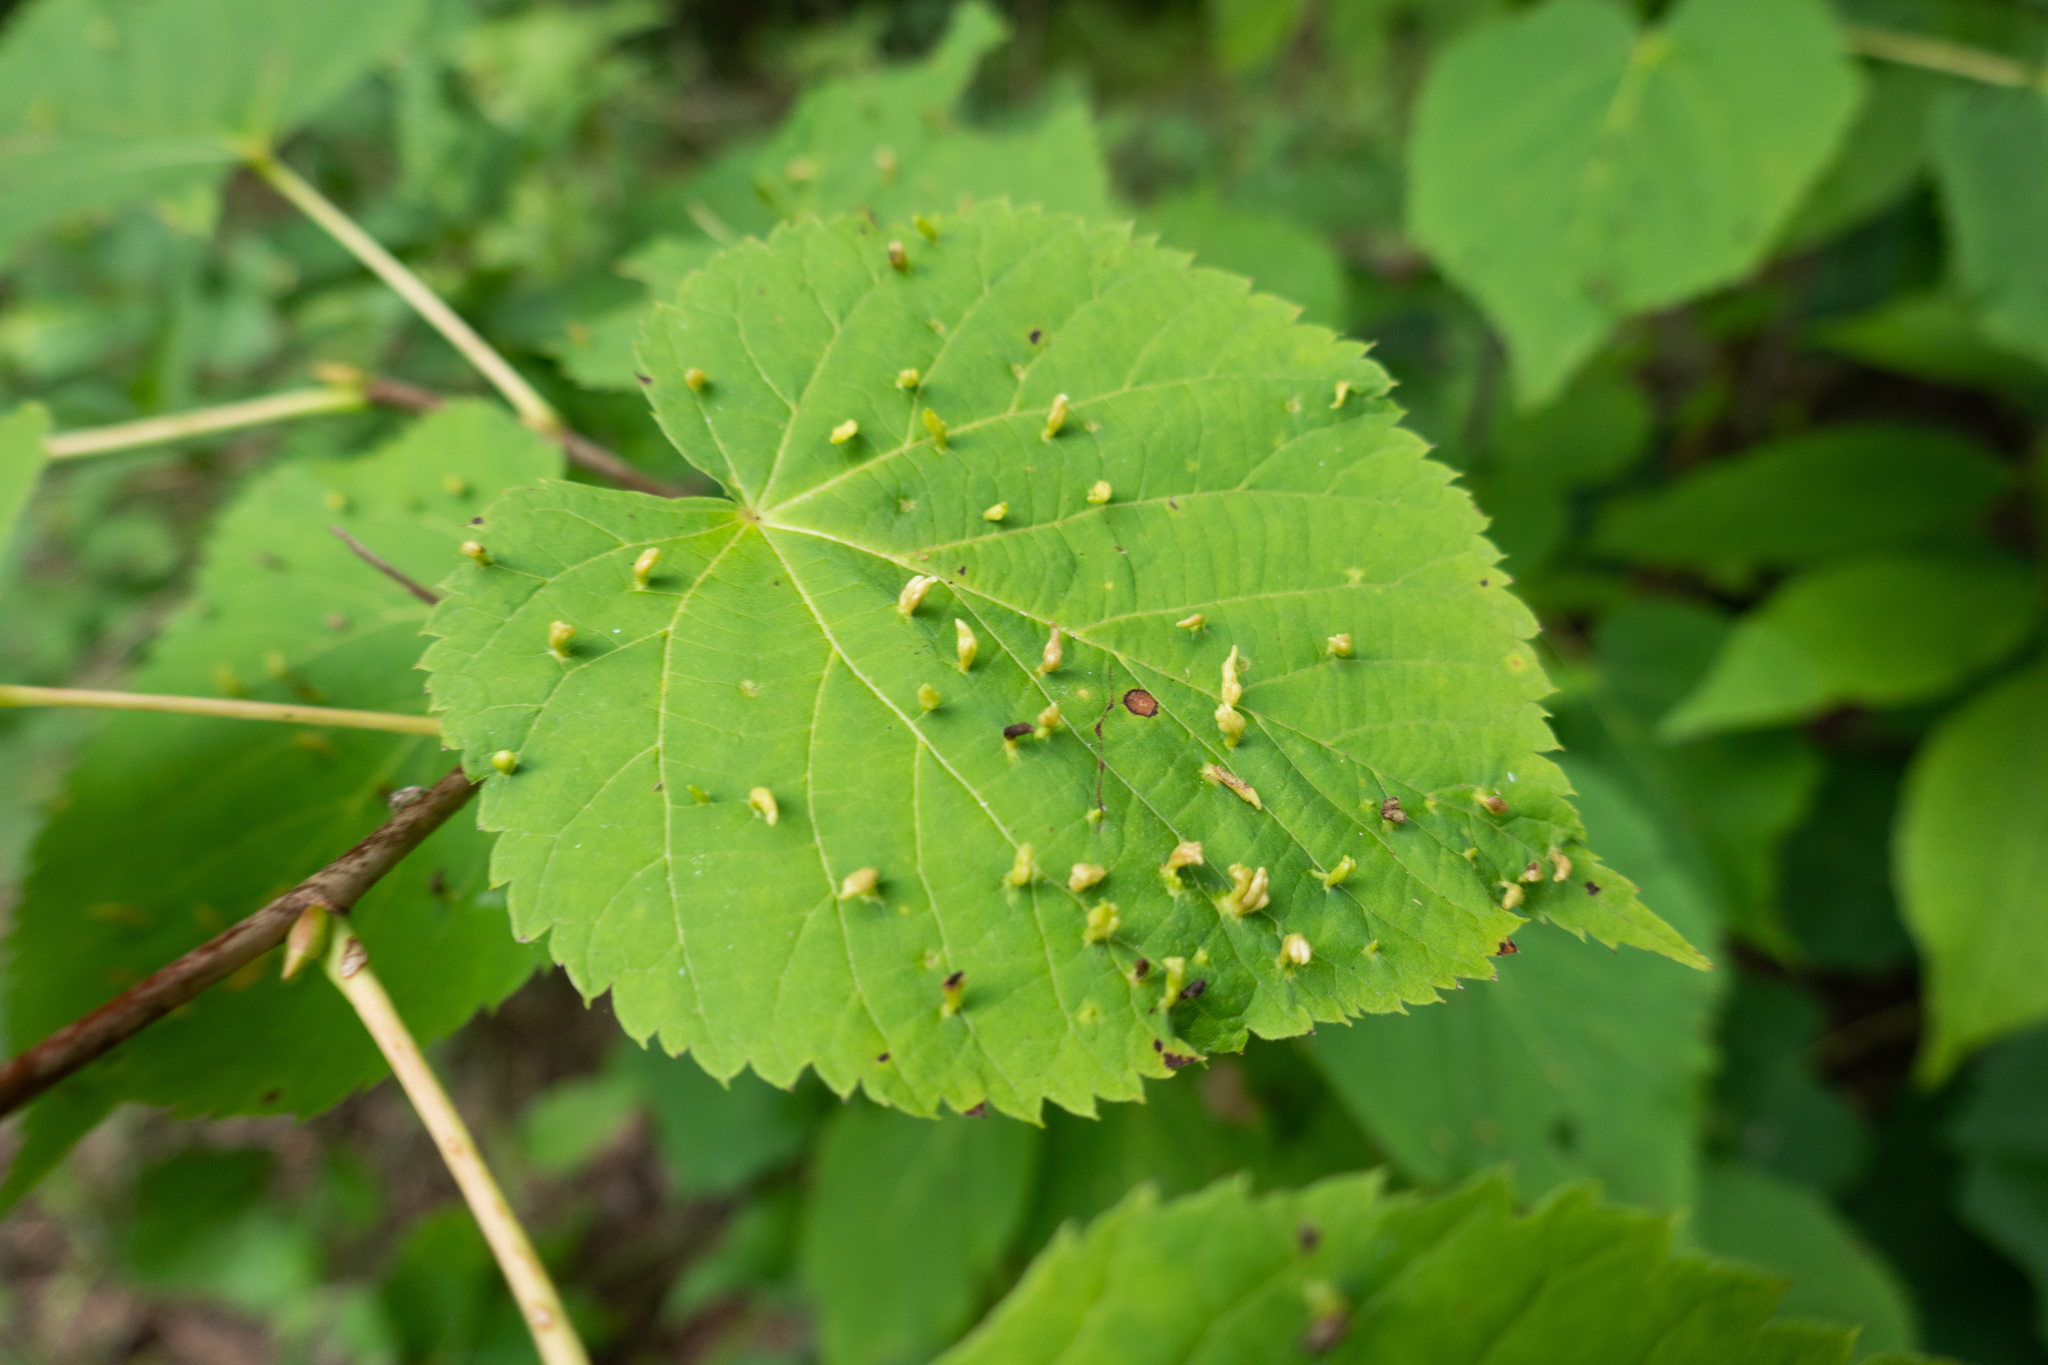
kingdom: Animalia
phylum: Arthropoda
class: Arachnida
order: Trombidiformes
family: Eriophyidae
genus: Eriophyes
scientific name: Eriophyes tiliae
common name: Red nail gall mite
